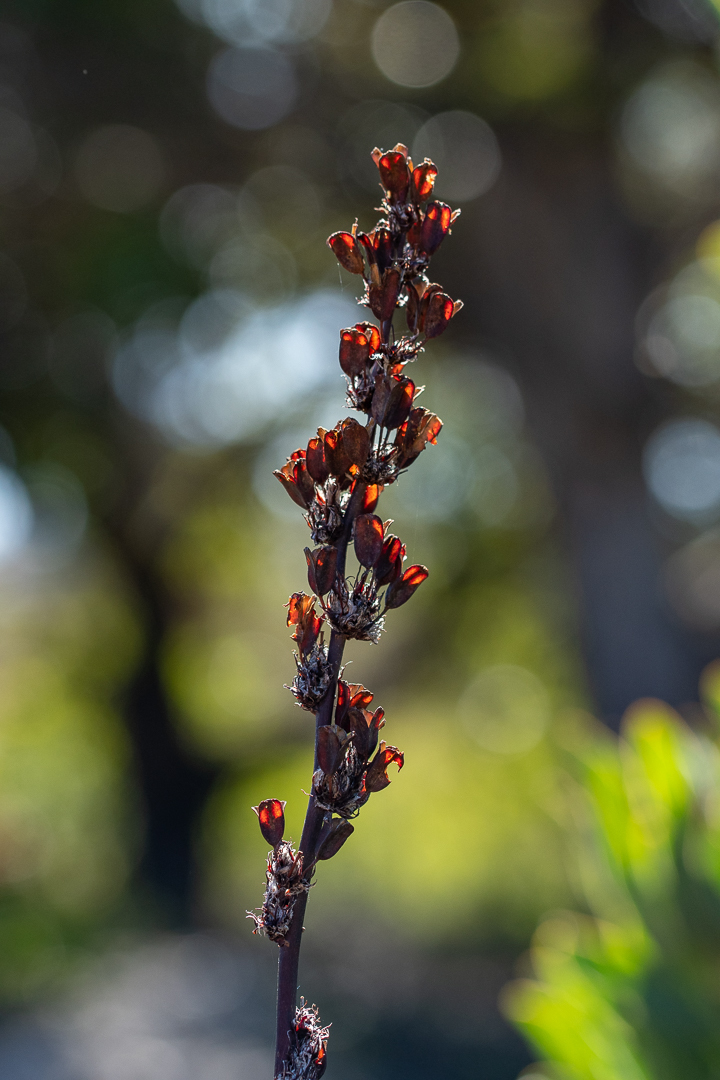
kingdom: Plantae
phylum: Tracheophyta
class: Liliopsida
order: Asparagales
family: Iridaceae
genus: Aristea
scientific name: Aristea capitata
